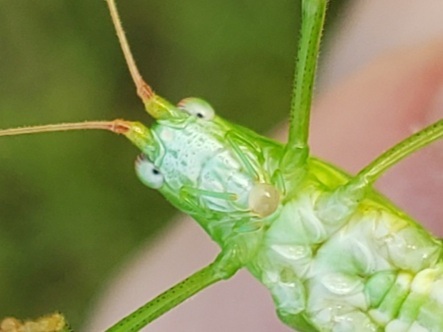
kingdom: Animalia
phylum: Arthropoda
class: Insecta
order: Orthoptera
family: Tettigoniidae
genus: Phaneroptera
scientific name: Phaneroptera
